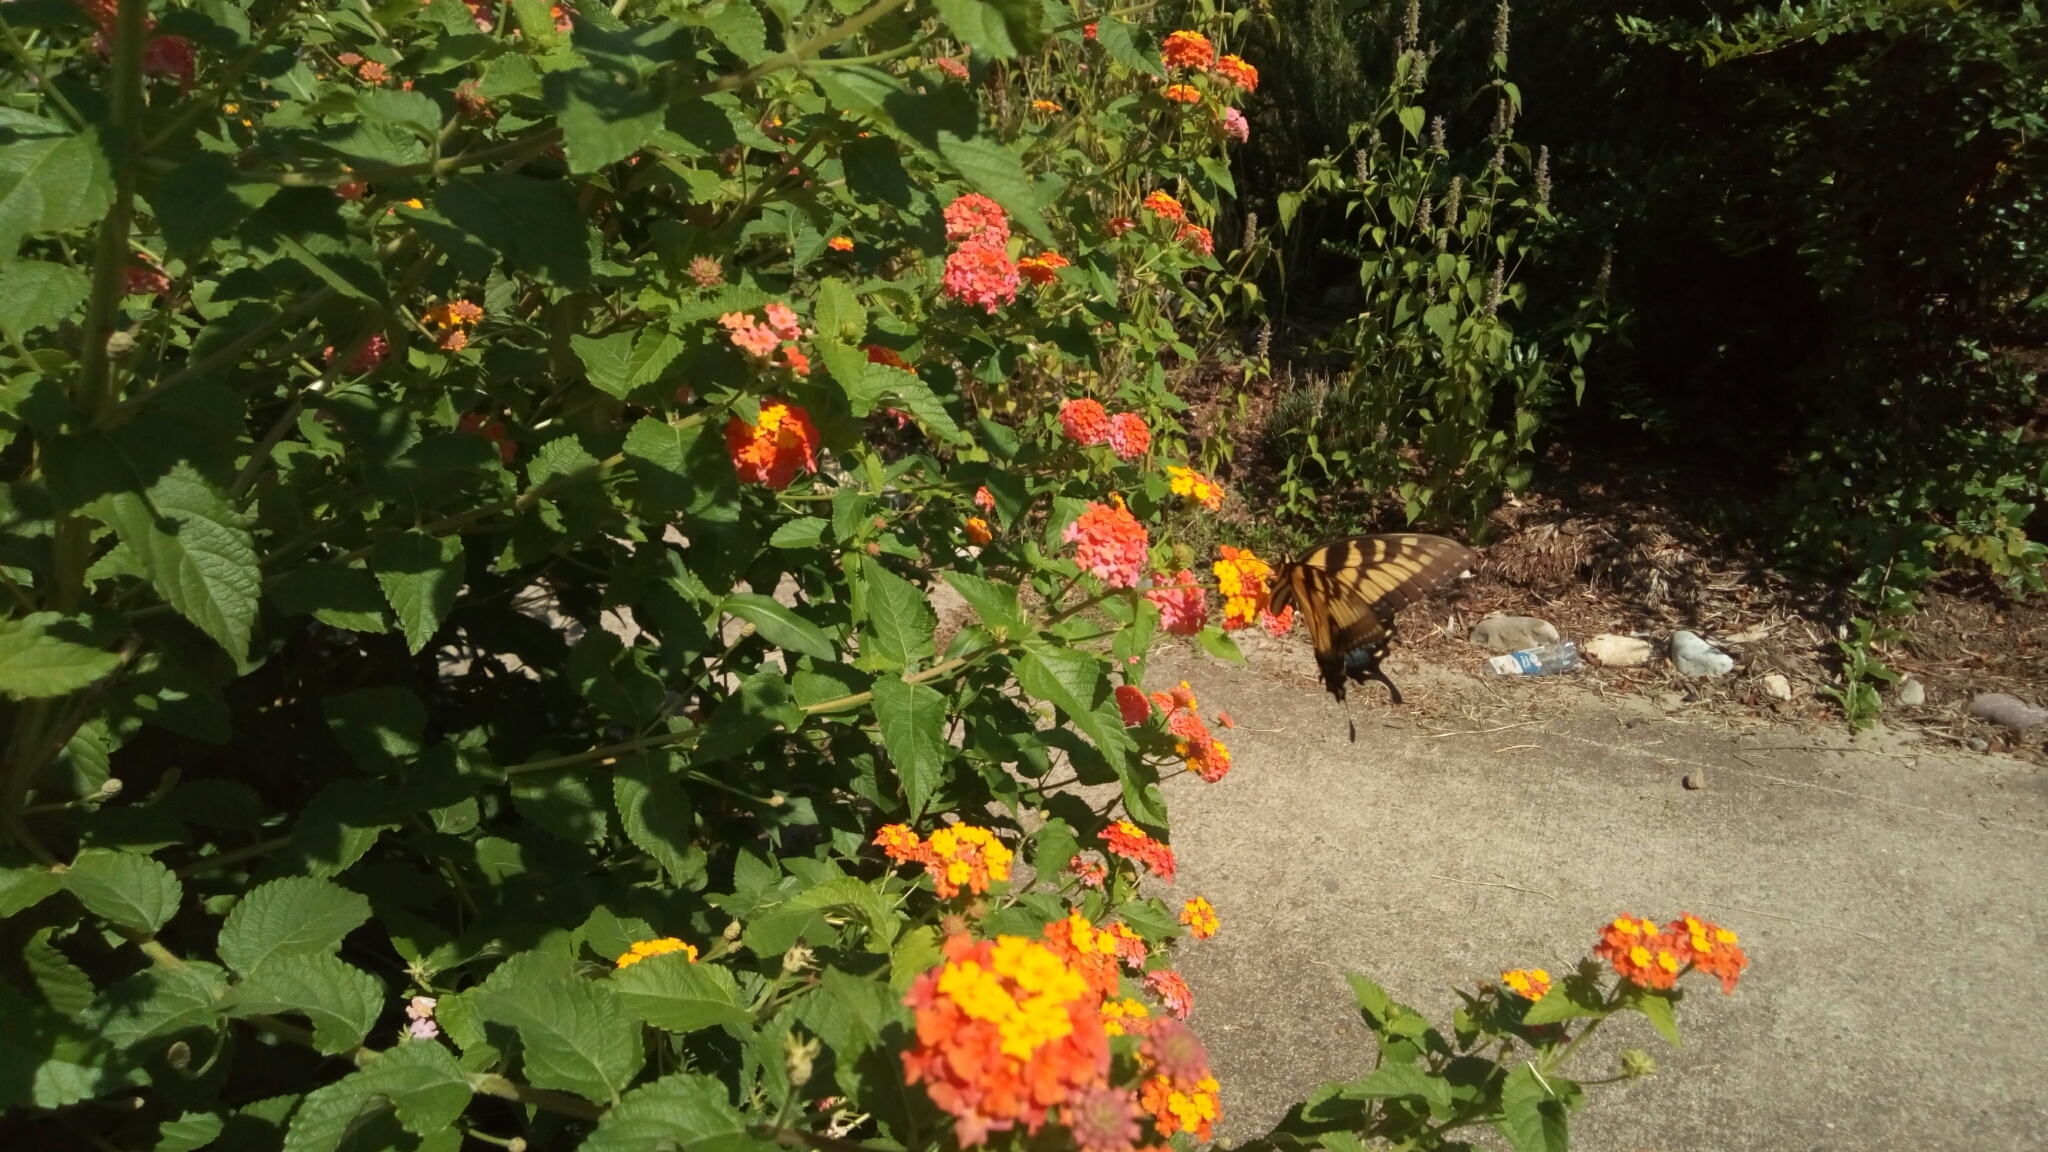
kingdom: Animalia
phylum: Arthropoda
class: Insecta
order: Lepidoptera
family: Papilionidae
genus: Papilio
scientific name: Papilio glaucus
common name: Tiger swallowtail
